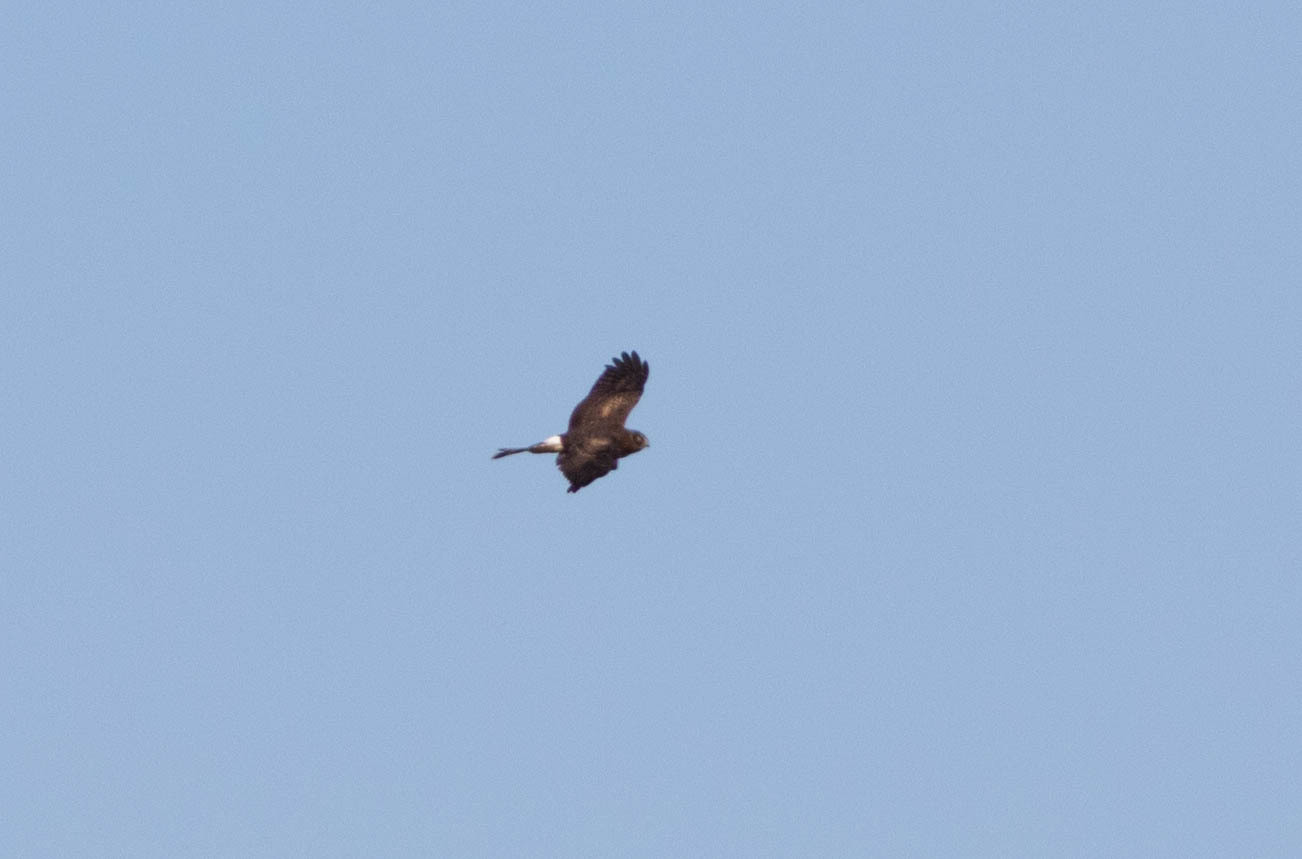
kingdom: Animalia
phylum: Chordata
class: Aves
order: Accipitriformes
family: Accipitridae
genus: Circus
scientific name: Circus cyaneus
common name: Hen harrier
